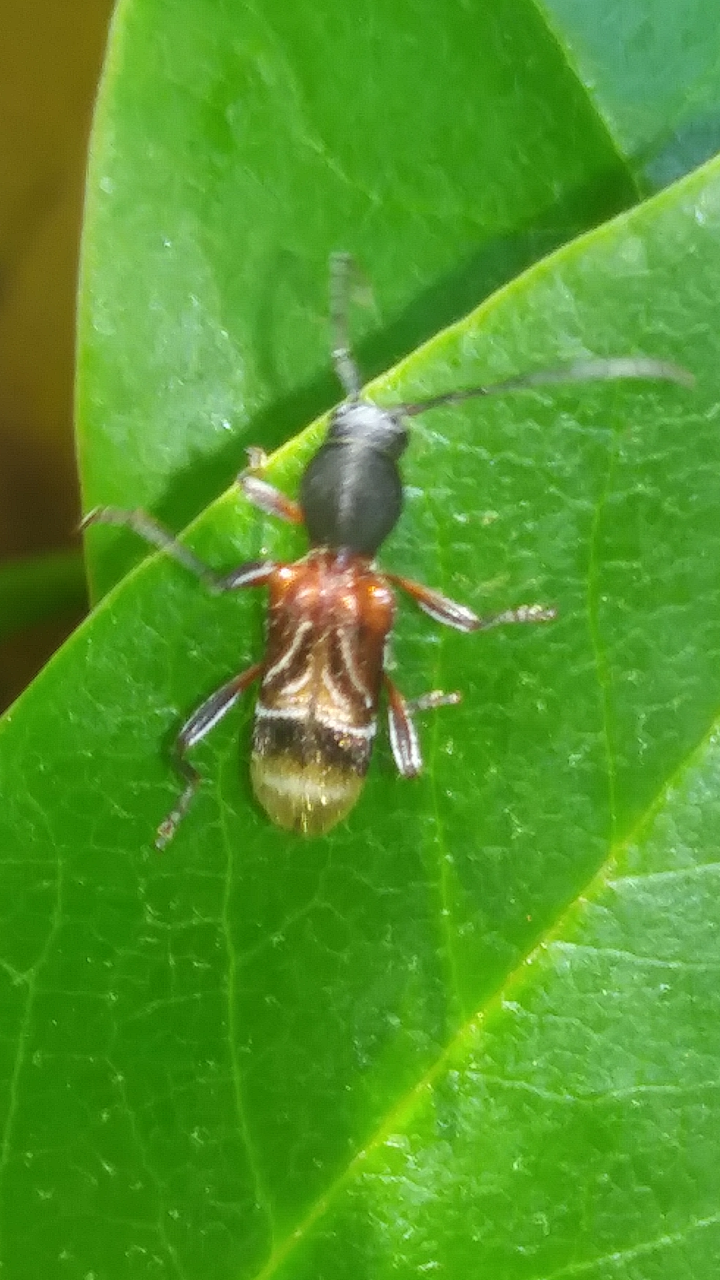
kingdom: Animalia
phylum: Arthropoda
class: Insecta
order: Coleoptera
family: Cerambycidae
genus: Cyrtophorus
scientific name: Cyrtophorus verrucosus
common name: Ant-like longhorn beetle
